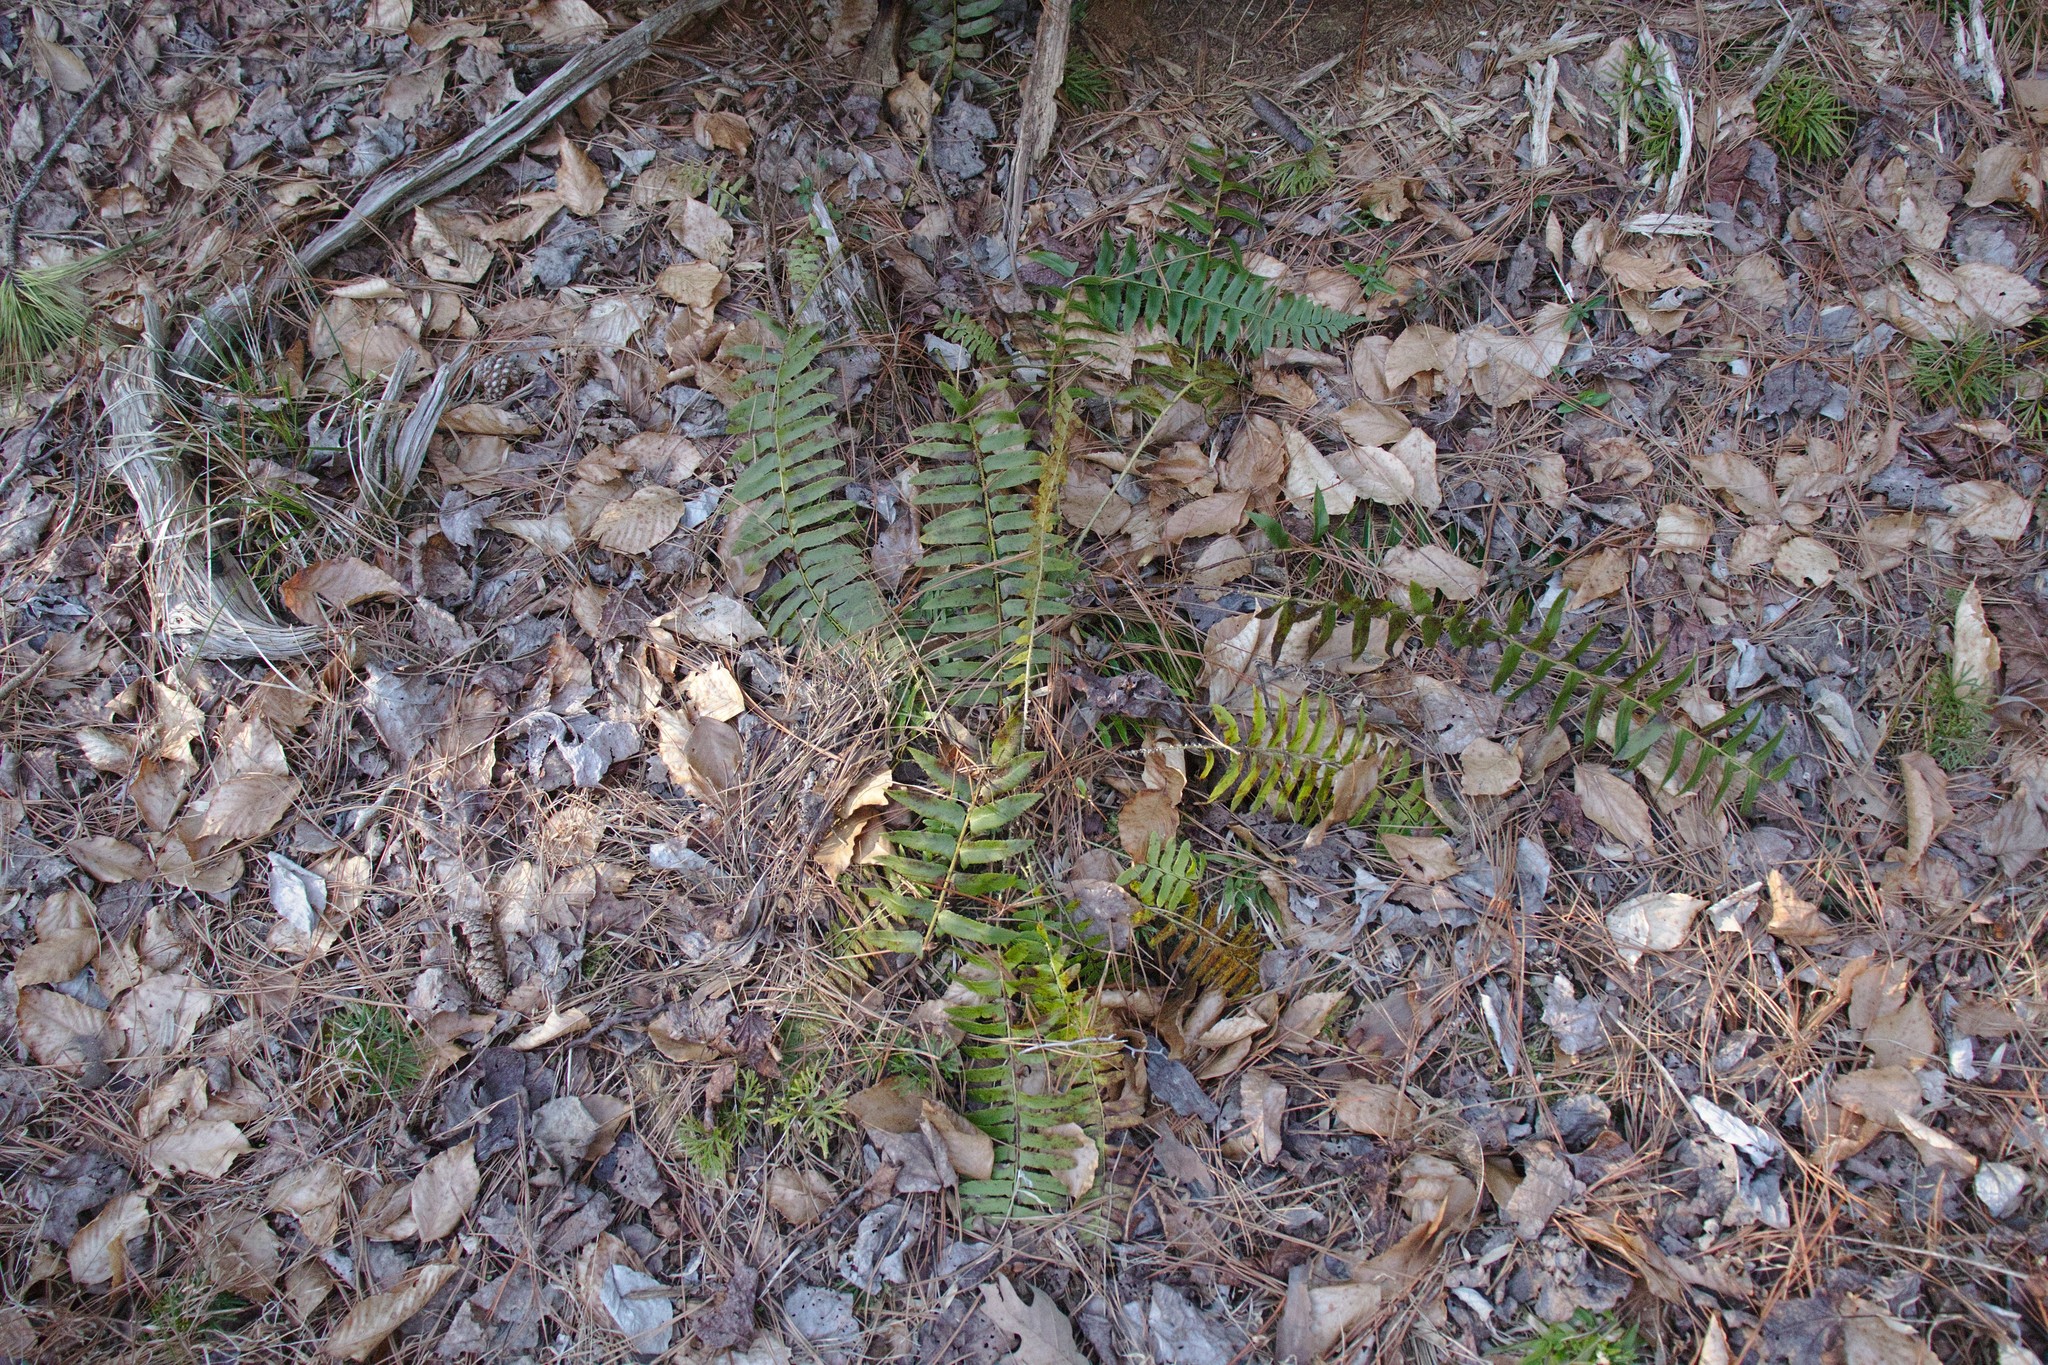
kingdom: Plantae
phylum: Tracheophyta
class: Polypodiopsida
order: Polypodiales
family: Dryopteridaceae
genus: Polystichum
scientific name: Polystichum acrostichoides
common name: Christmas fern
